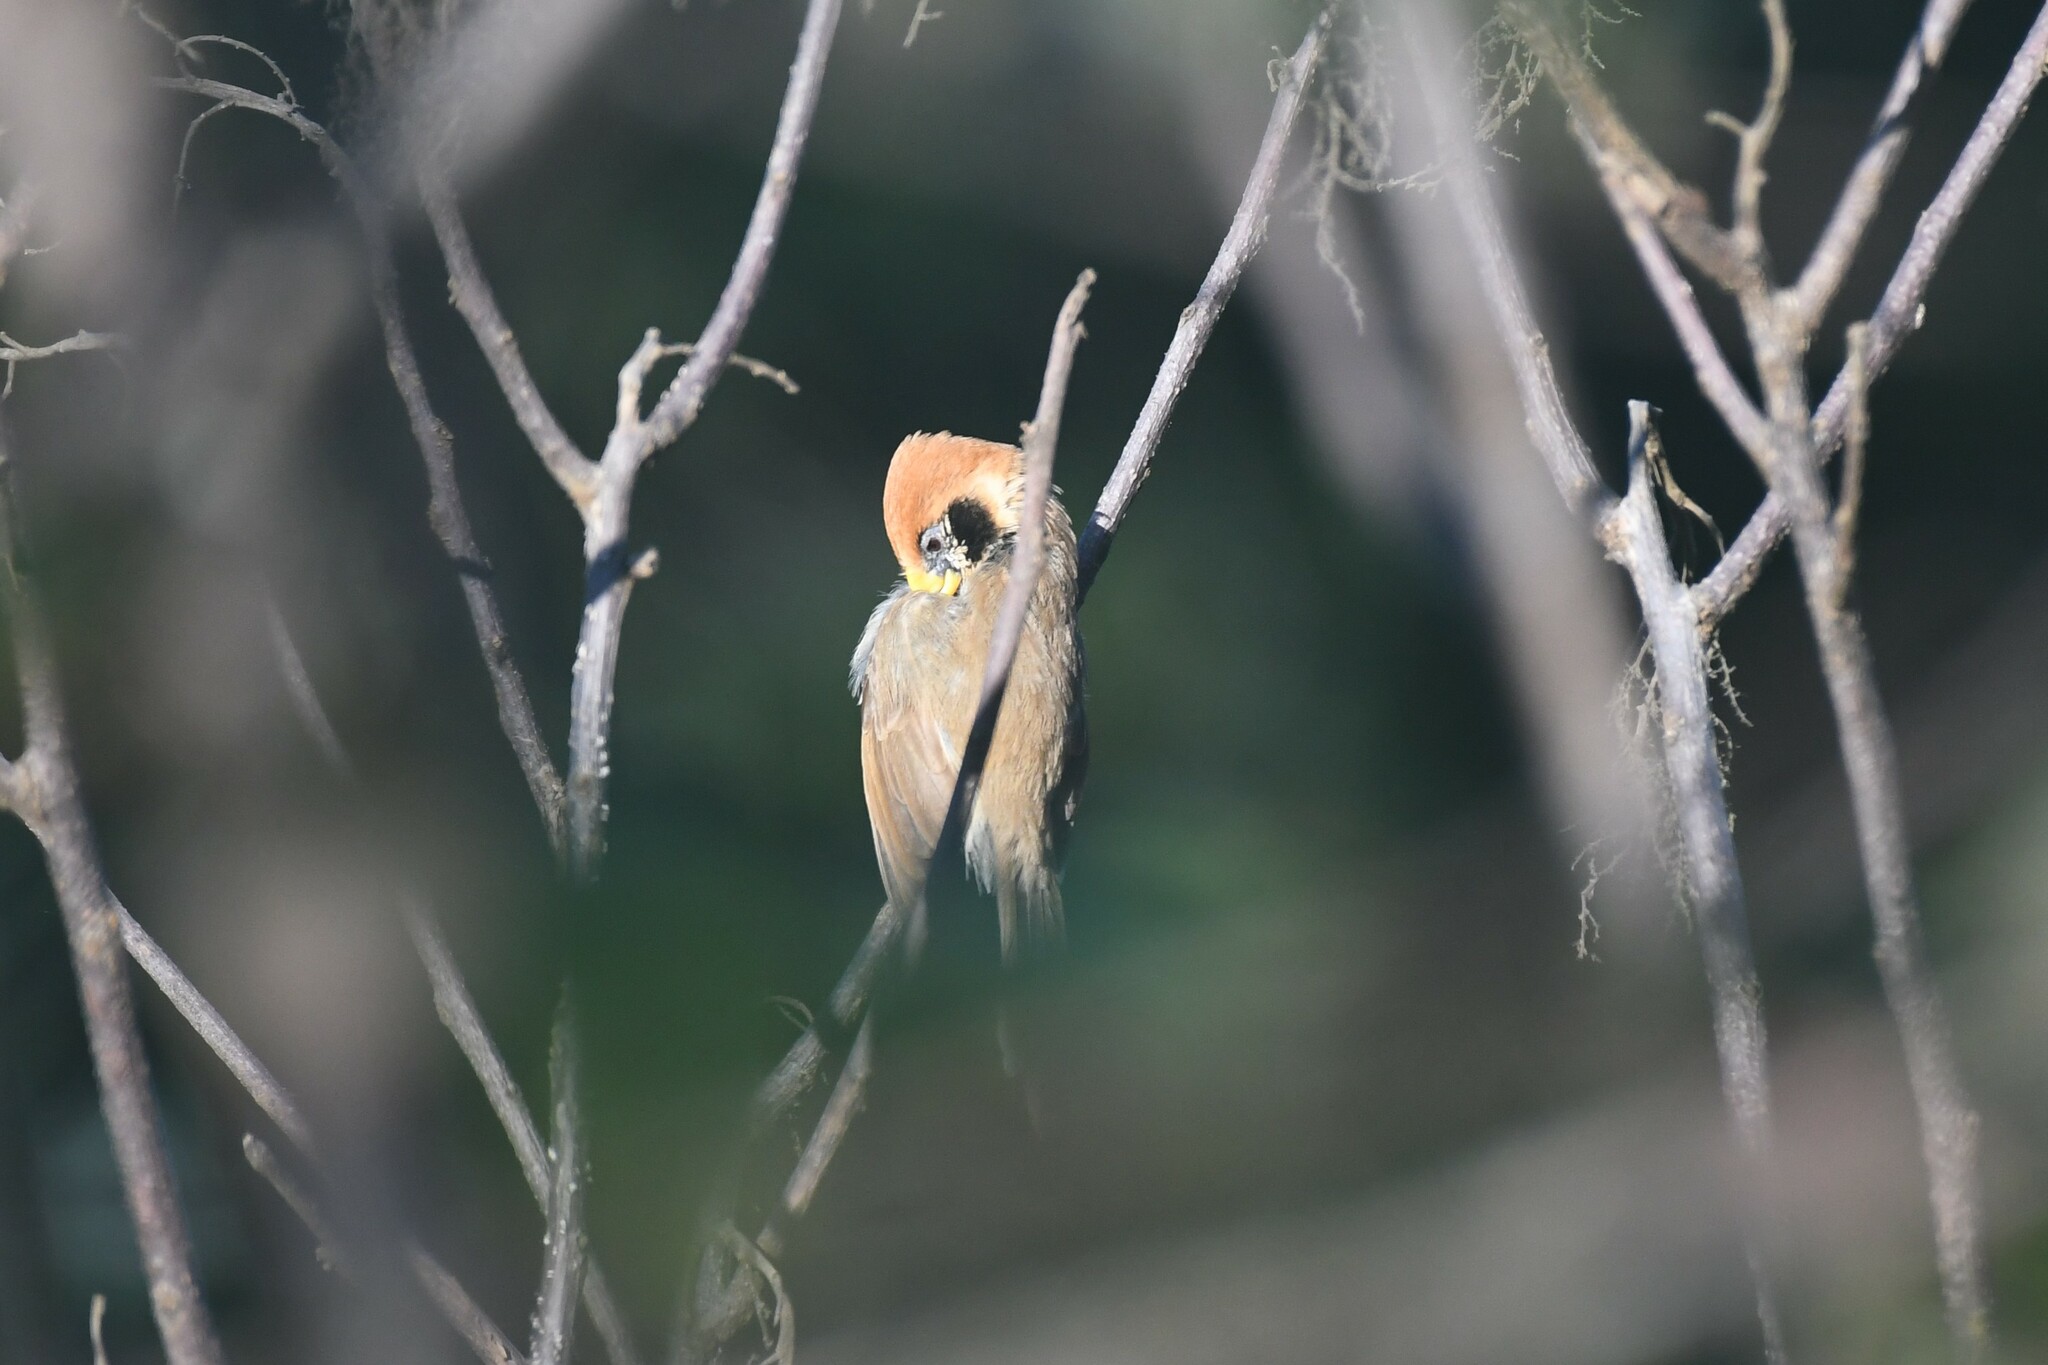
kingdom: Animalia
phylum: Chordata
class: Aves
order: Passeriformes
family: Sylviidae
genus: Paradoxornis
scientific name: Paradoxornis guttaticollis
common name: Spot-breasted parrotbill
